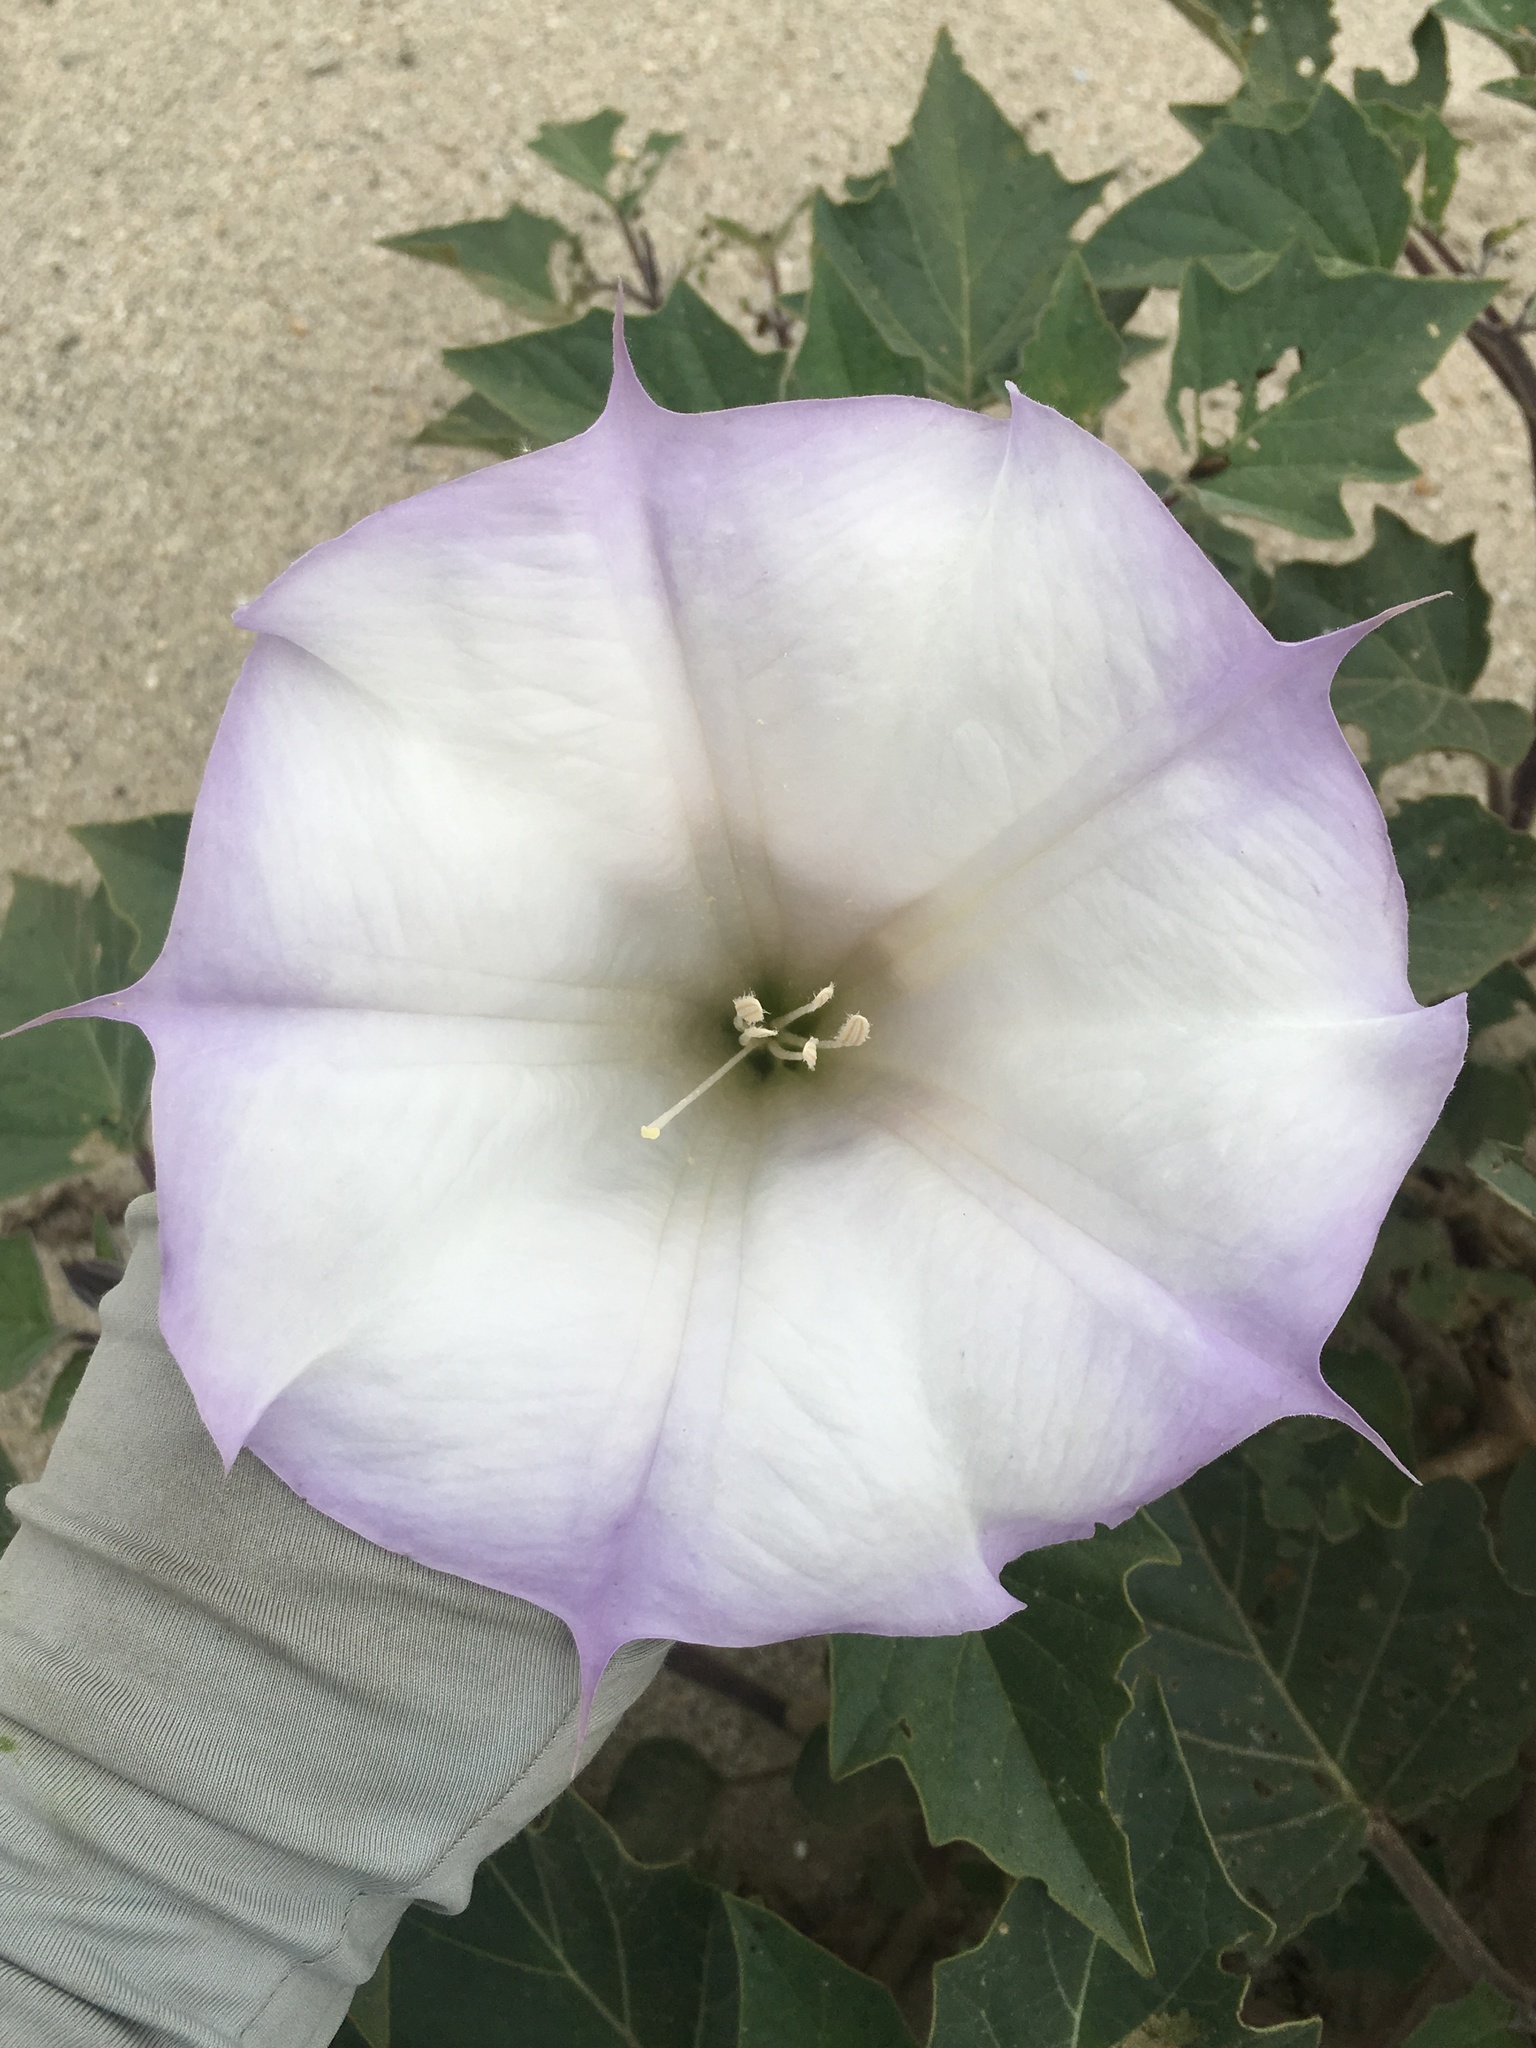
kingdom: Plantae
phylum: Tracheophyta
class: Magnoliopsida
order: Solanales
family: Solanaceae
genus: Datura
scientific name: Datura wrightii
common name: Sacred thorn-apple
